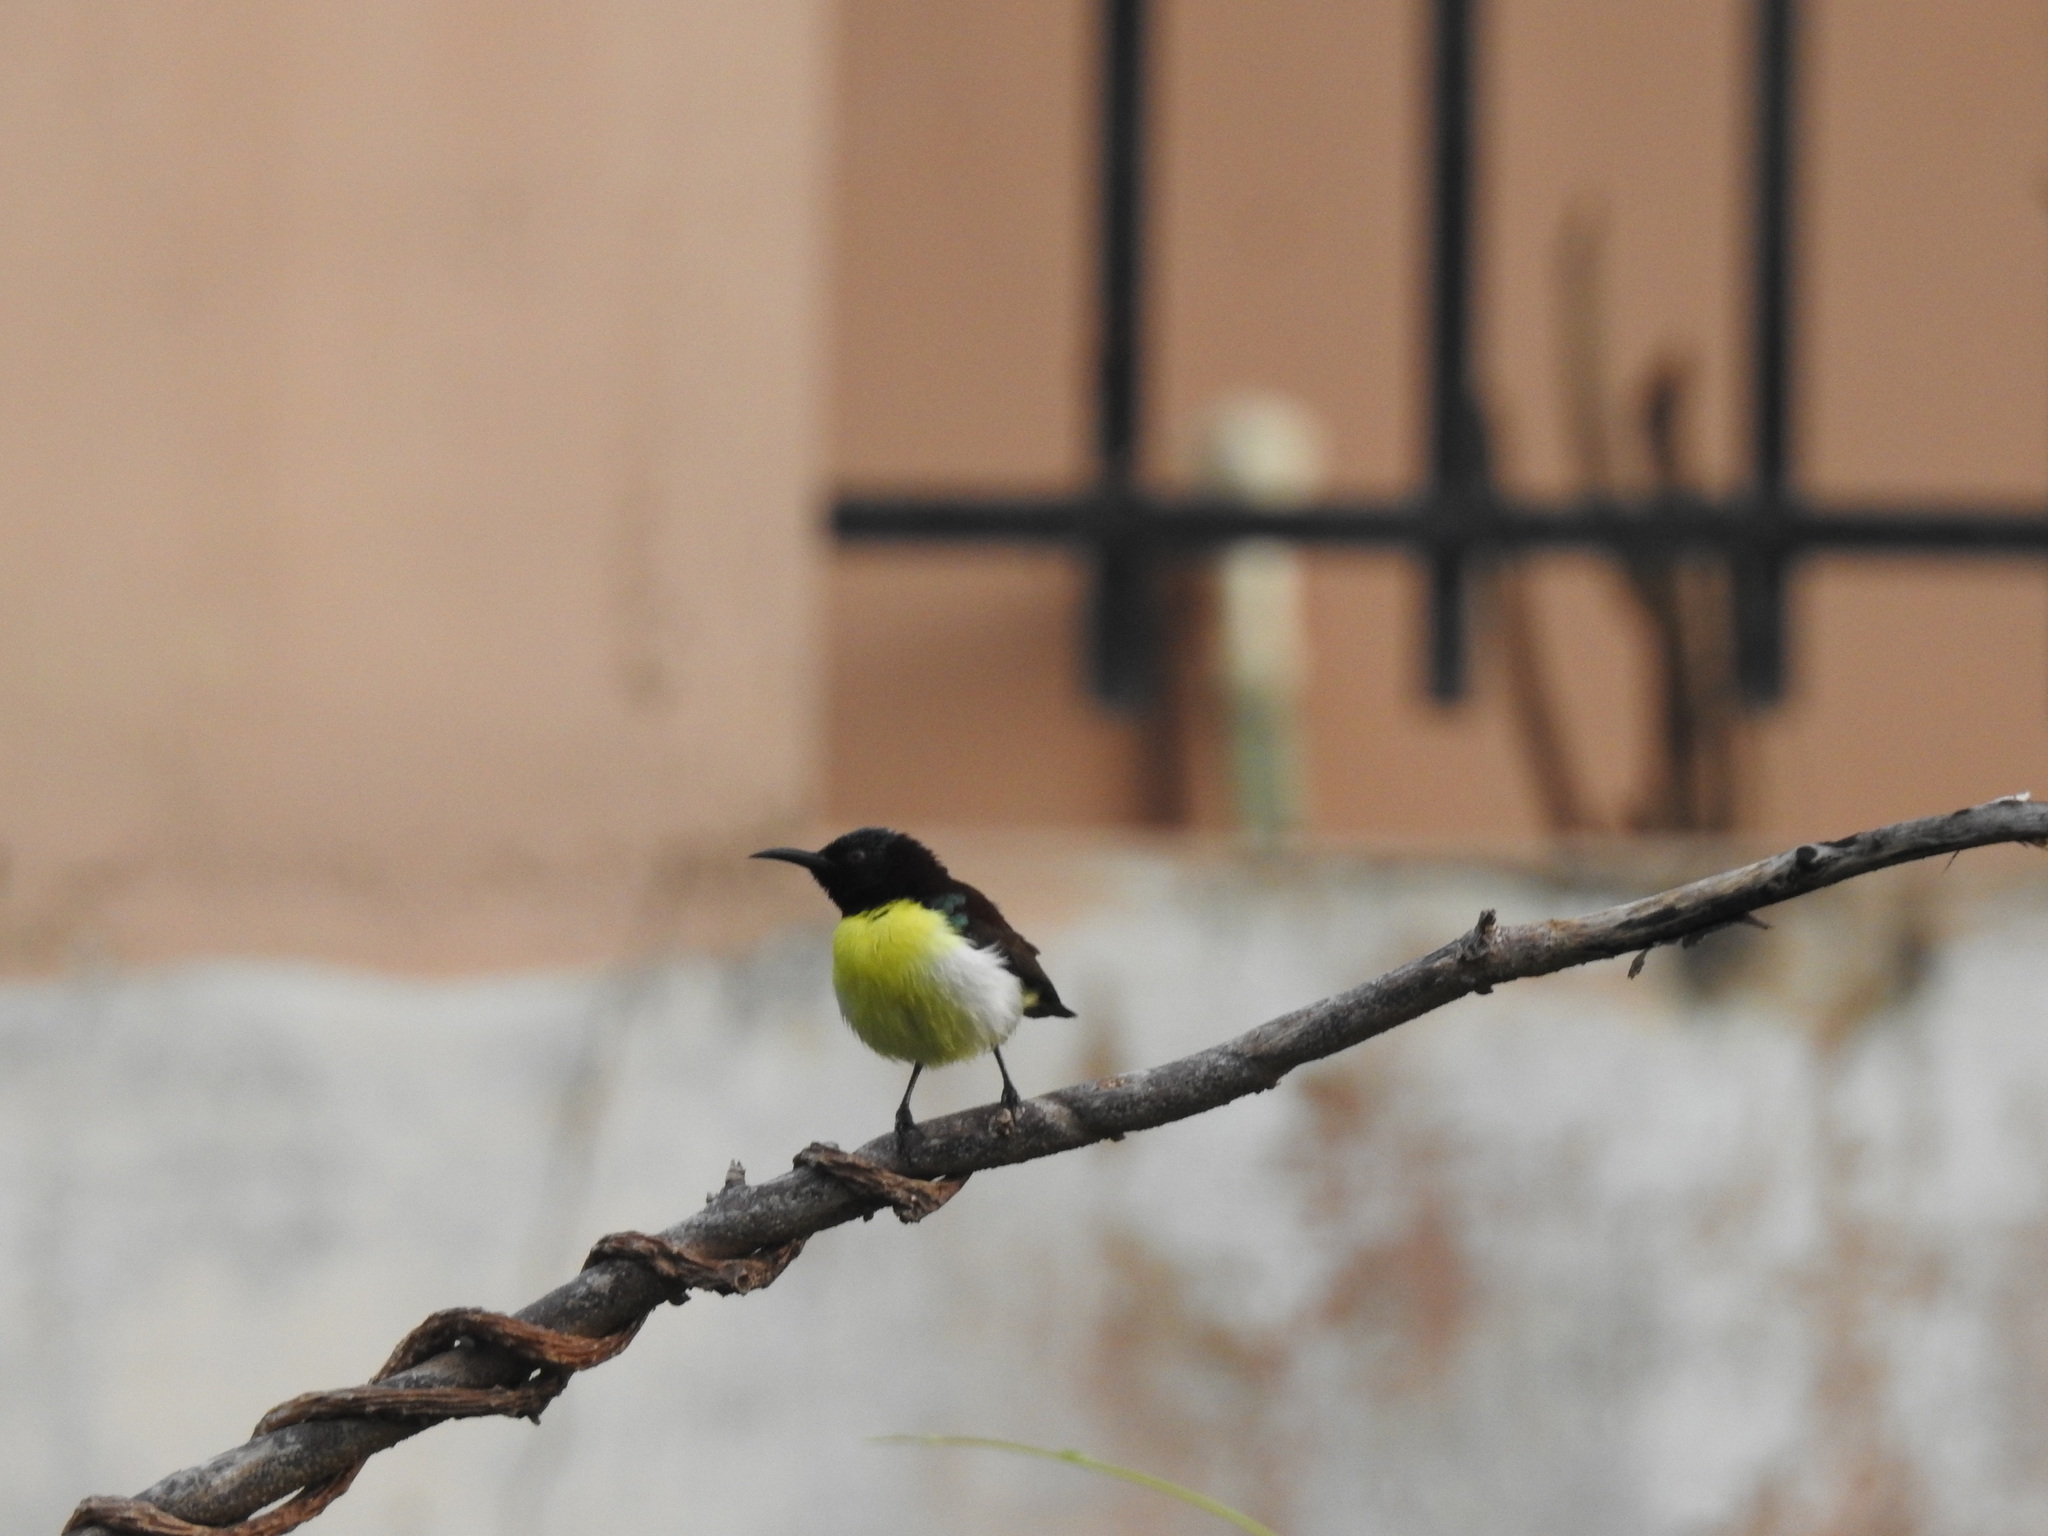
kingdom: Animalia
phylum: Chordata
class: Aves
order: Passeriformes
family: Nectariniidae
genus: Leptocoma
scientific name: Leptocoma zeylonica
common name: Purple-rumped sunbird
